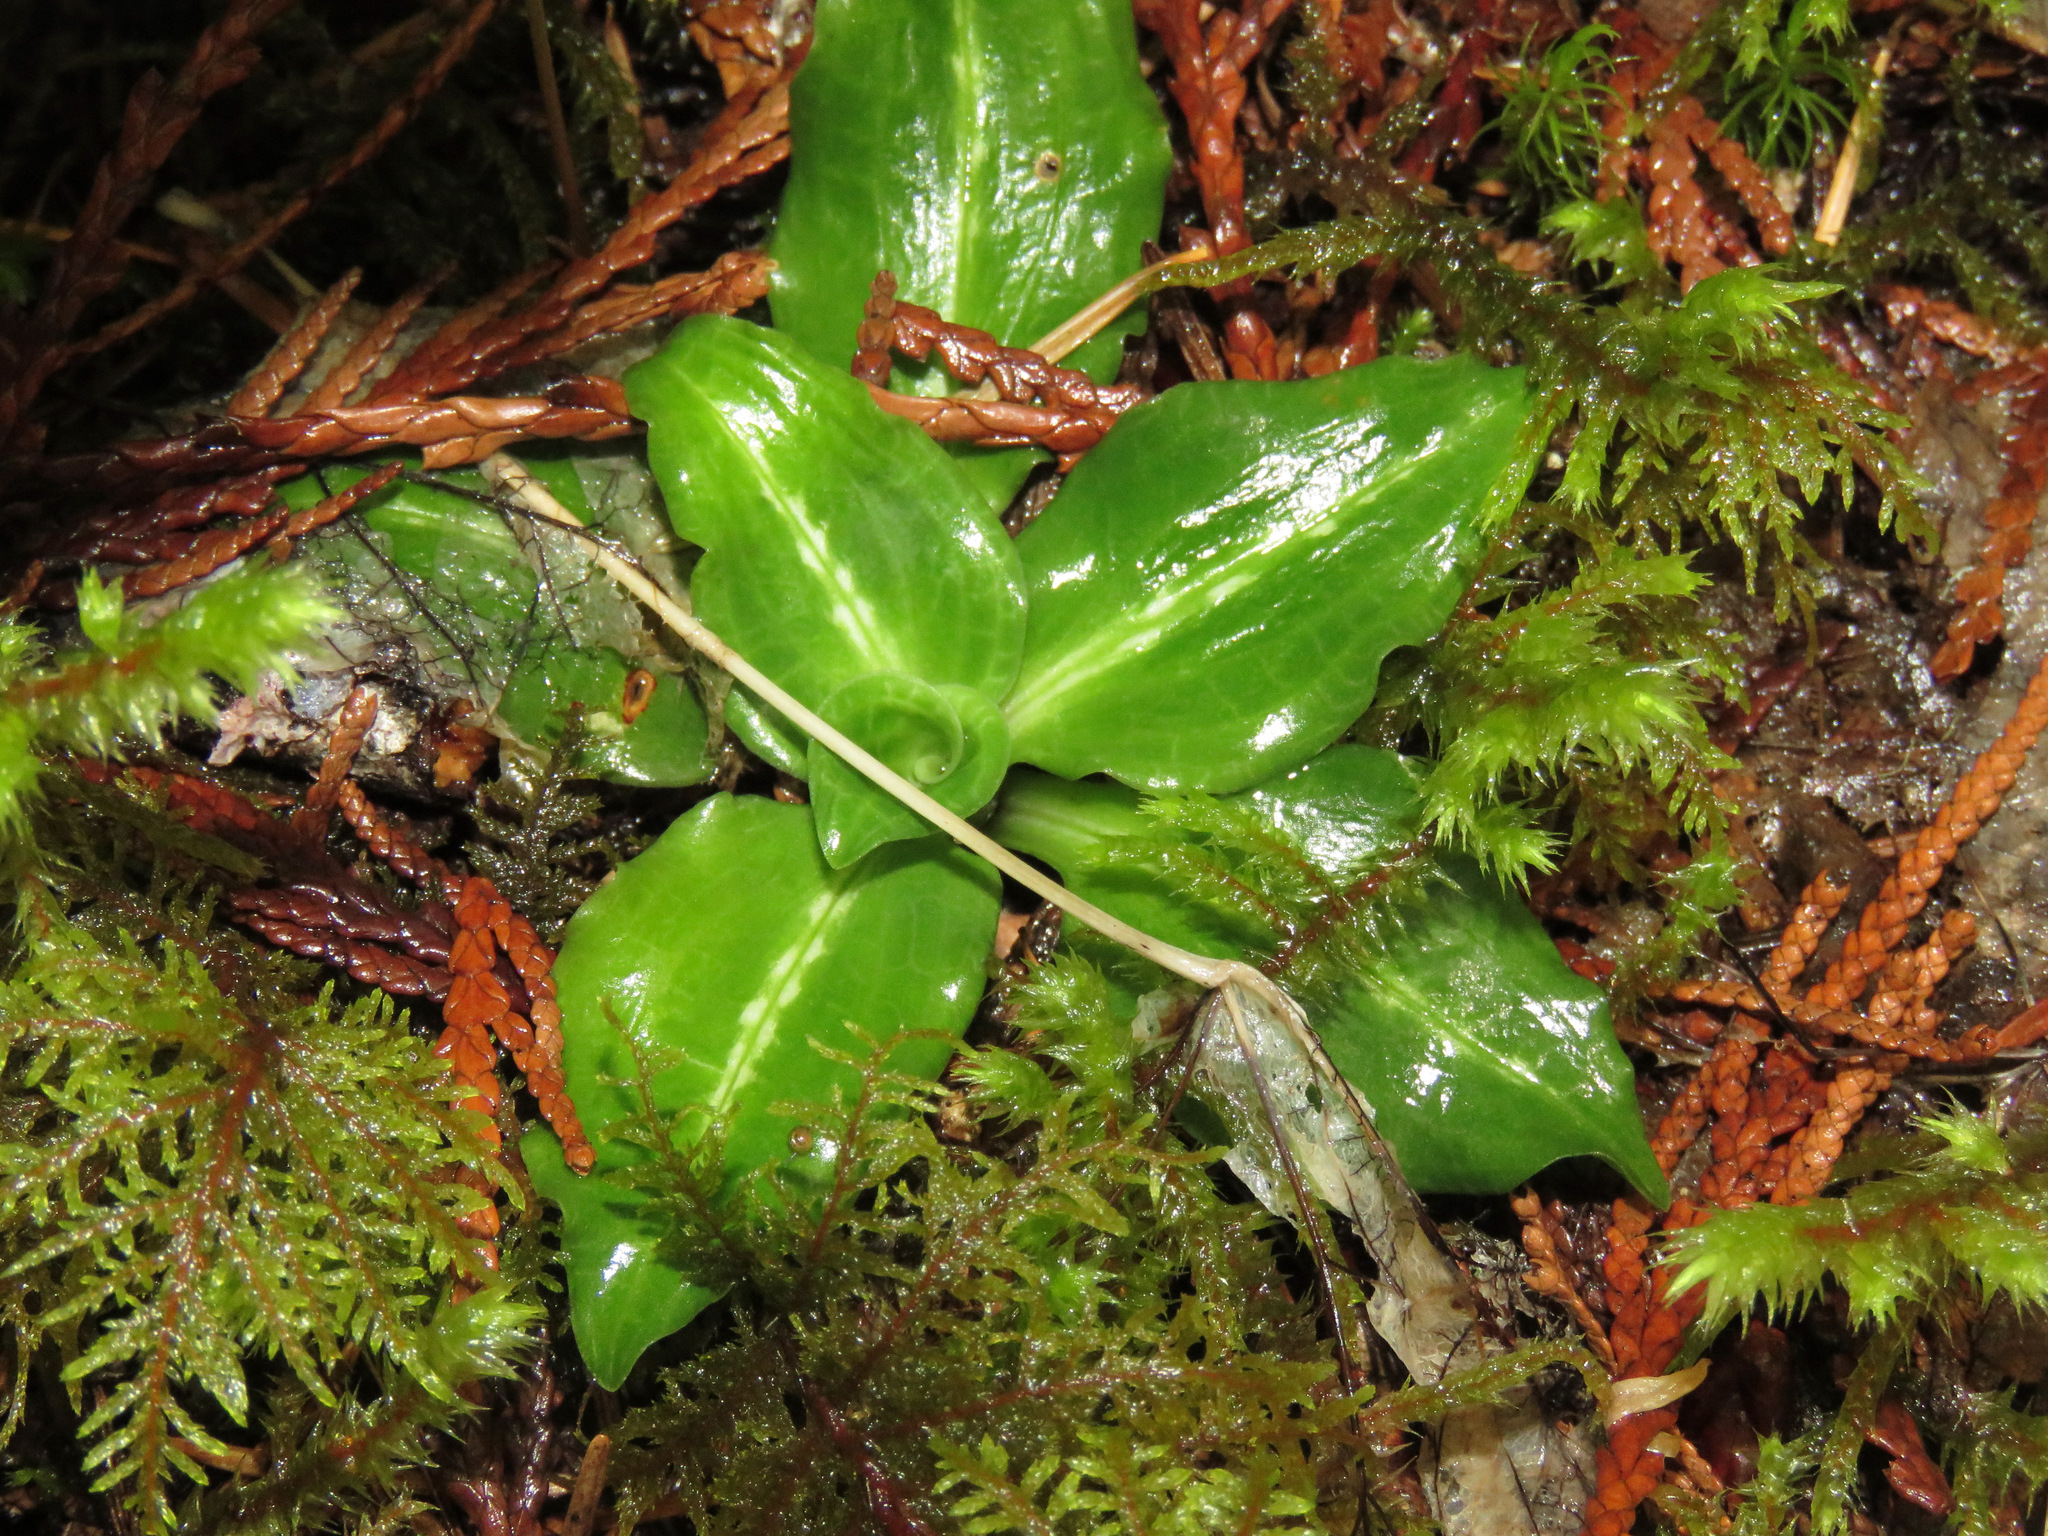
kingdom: Plantae
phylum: Tracheophyta
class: Liliopsida
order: Asparagales
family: Orchidaceae
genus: Goodyera
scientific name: Goodyera oblongifolia
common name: Giant rattlesnake-plantain
